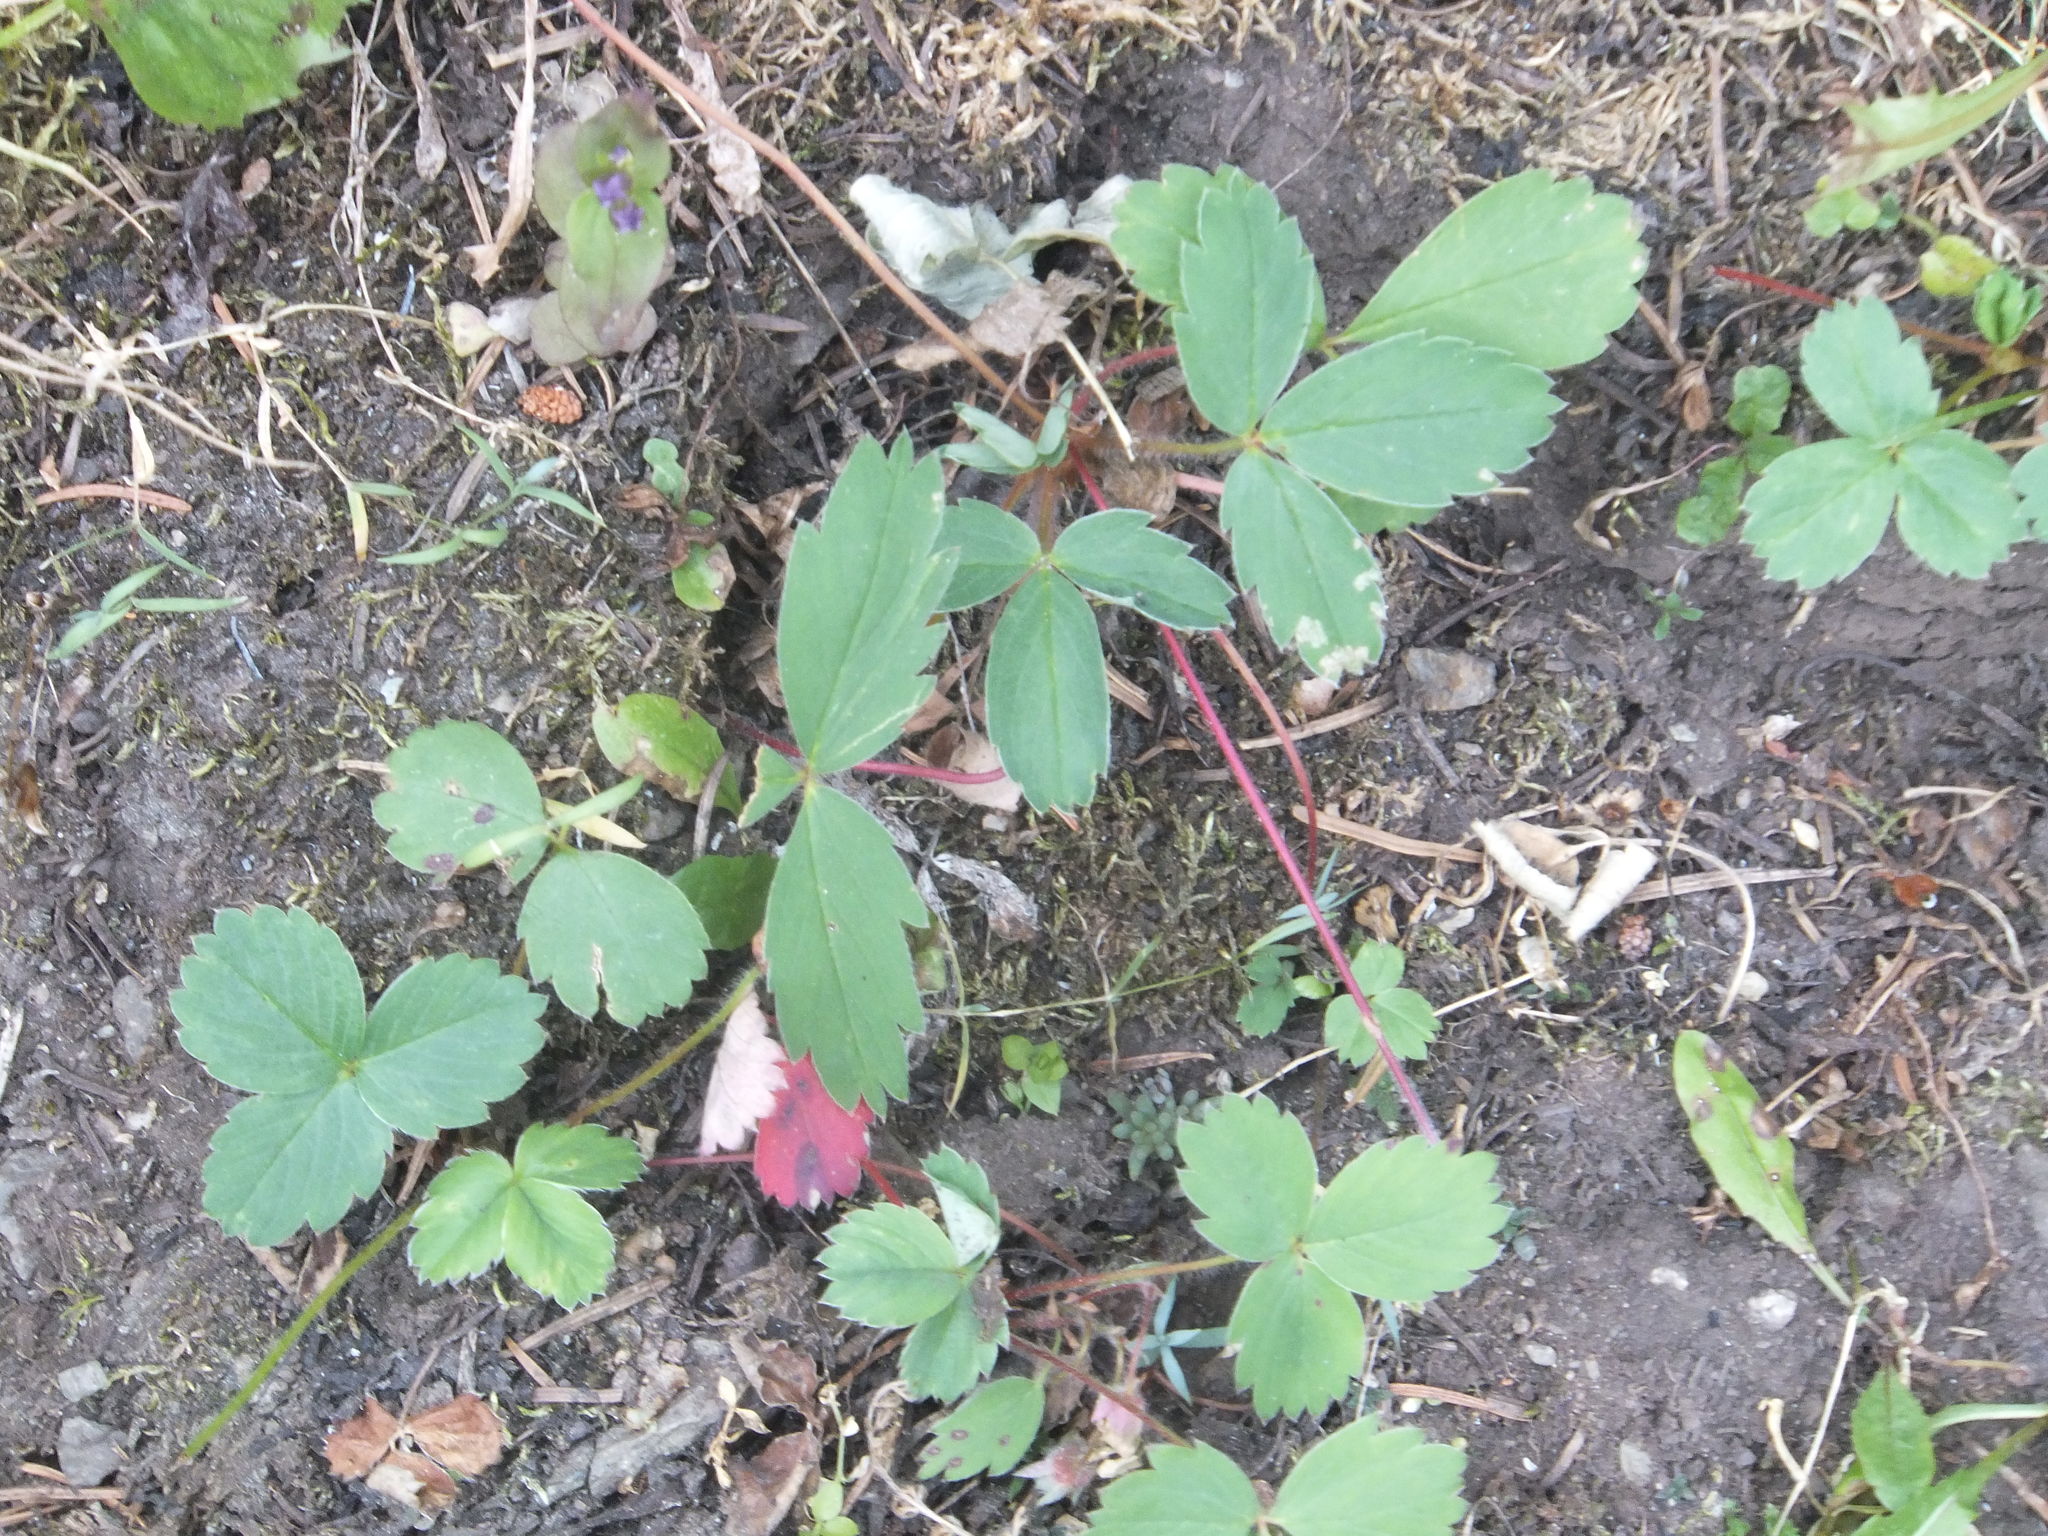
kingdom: Plantae
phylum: Tracheophyta
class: Magnoliopsida
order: Rosales
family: Rosaceae
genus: Fragaria
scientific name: Fragaria virginiana
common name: Thickleaved wild strawberry
